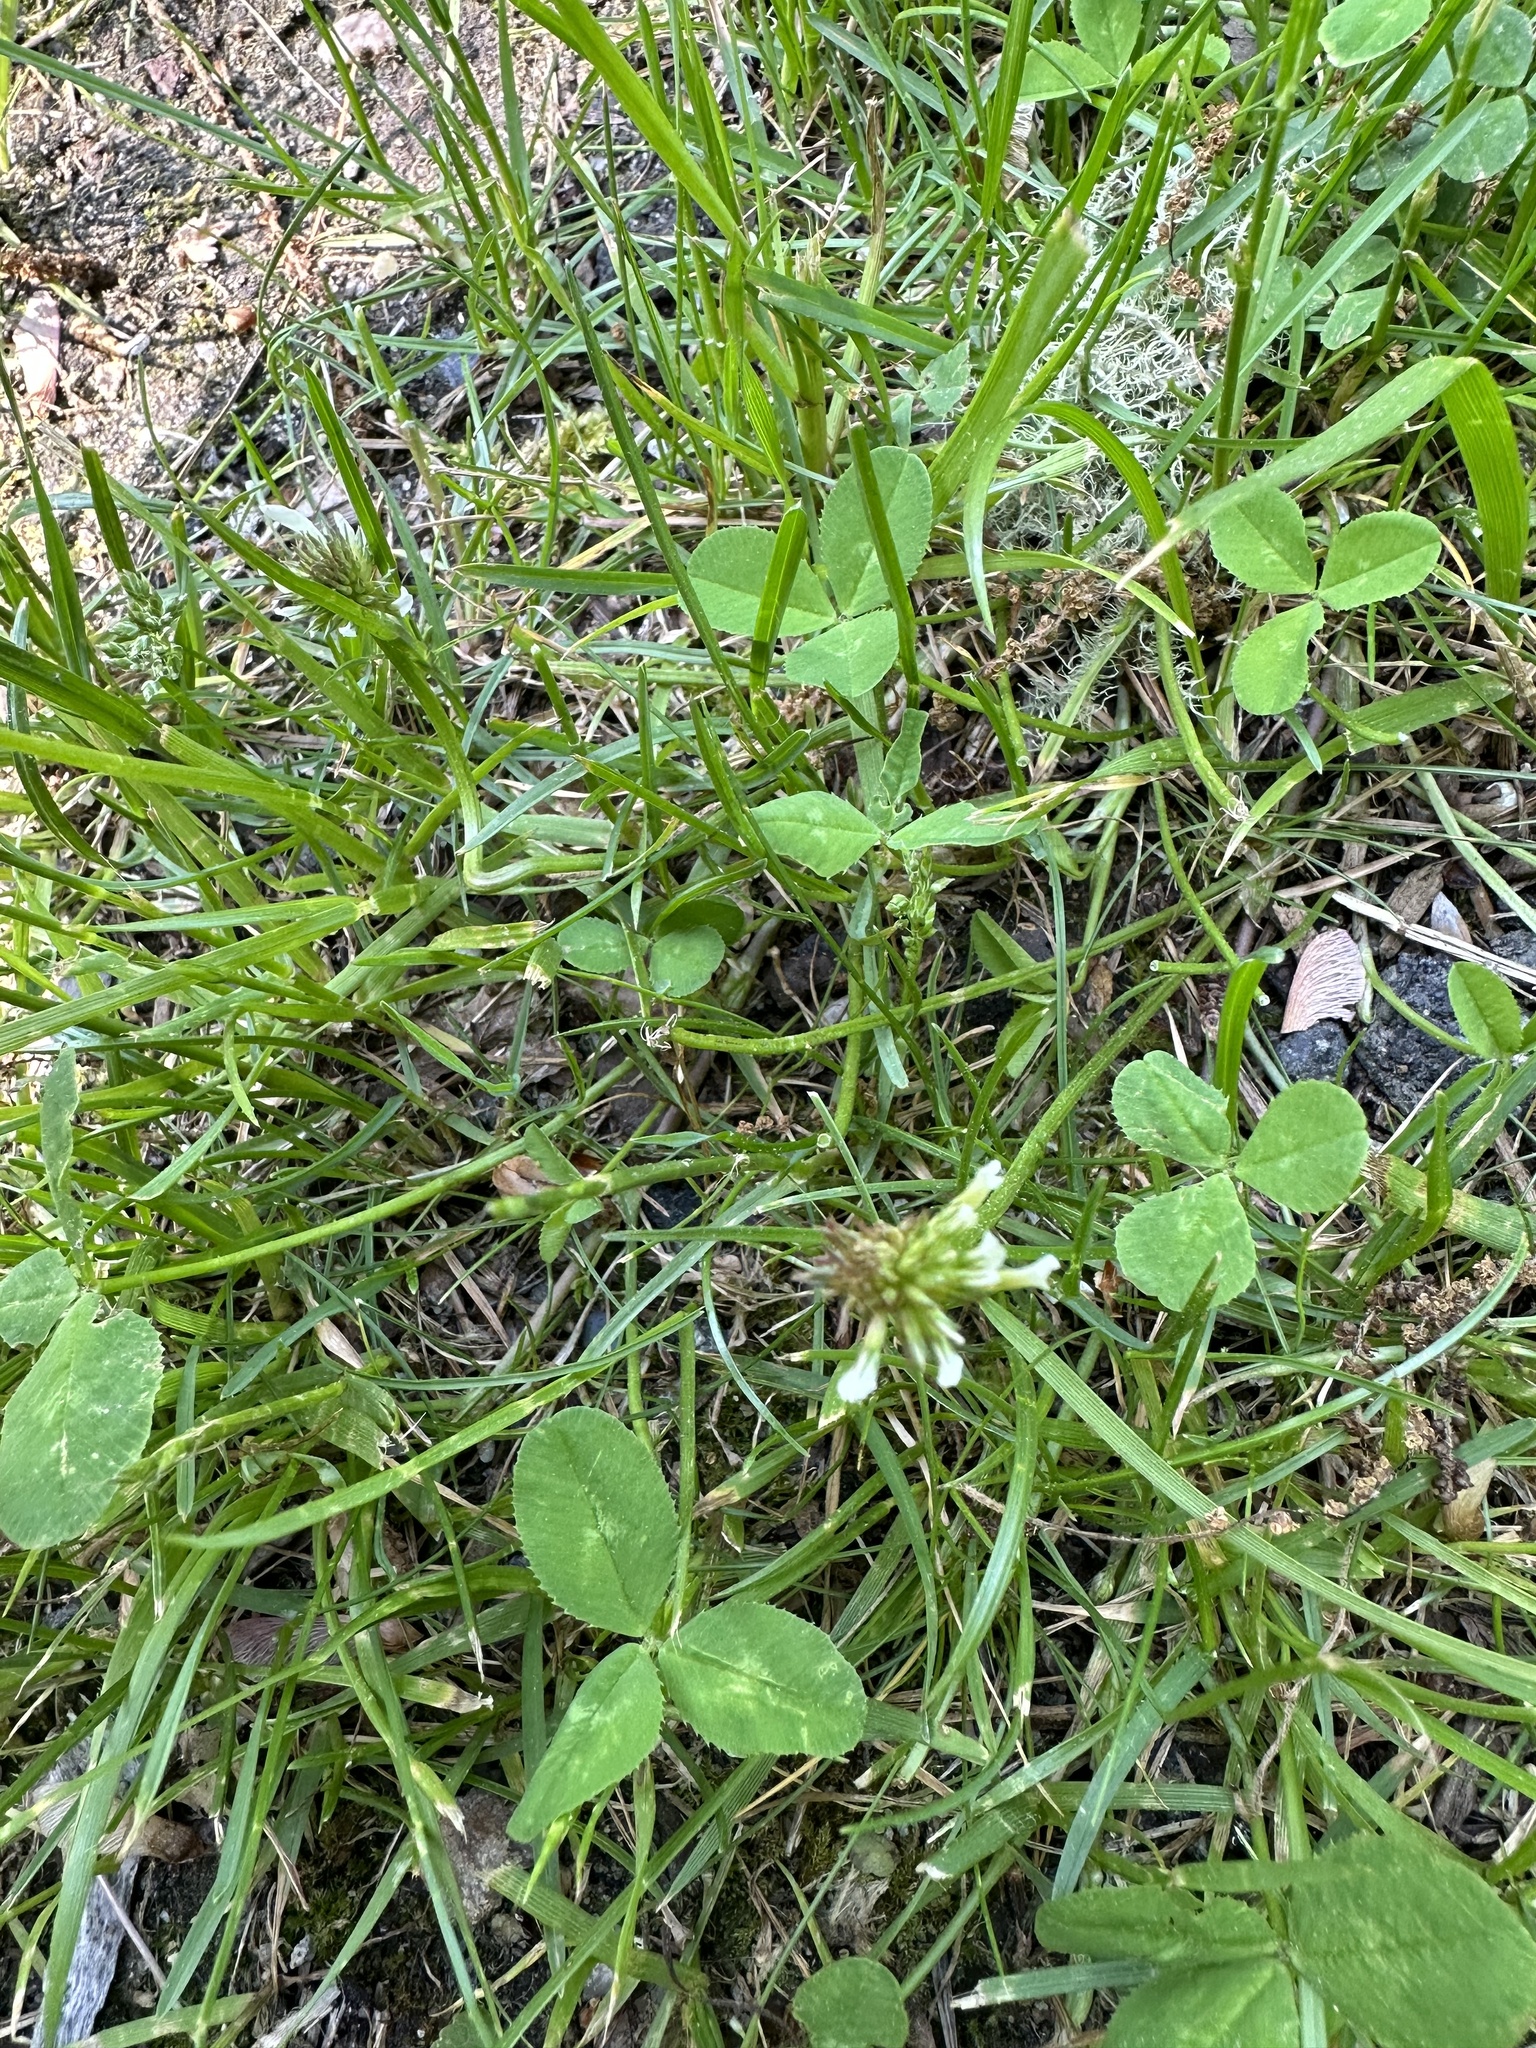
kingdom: Plantae
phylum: Tracheophyta
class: Magnoliopsida
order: Fabales
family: Fabaceae
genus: Trifolium
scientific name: Trifolium repens
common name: White clover
